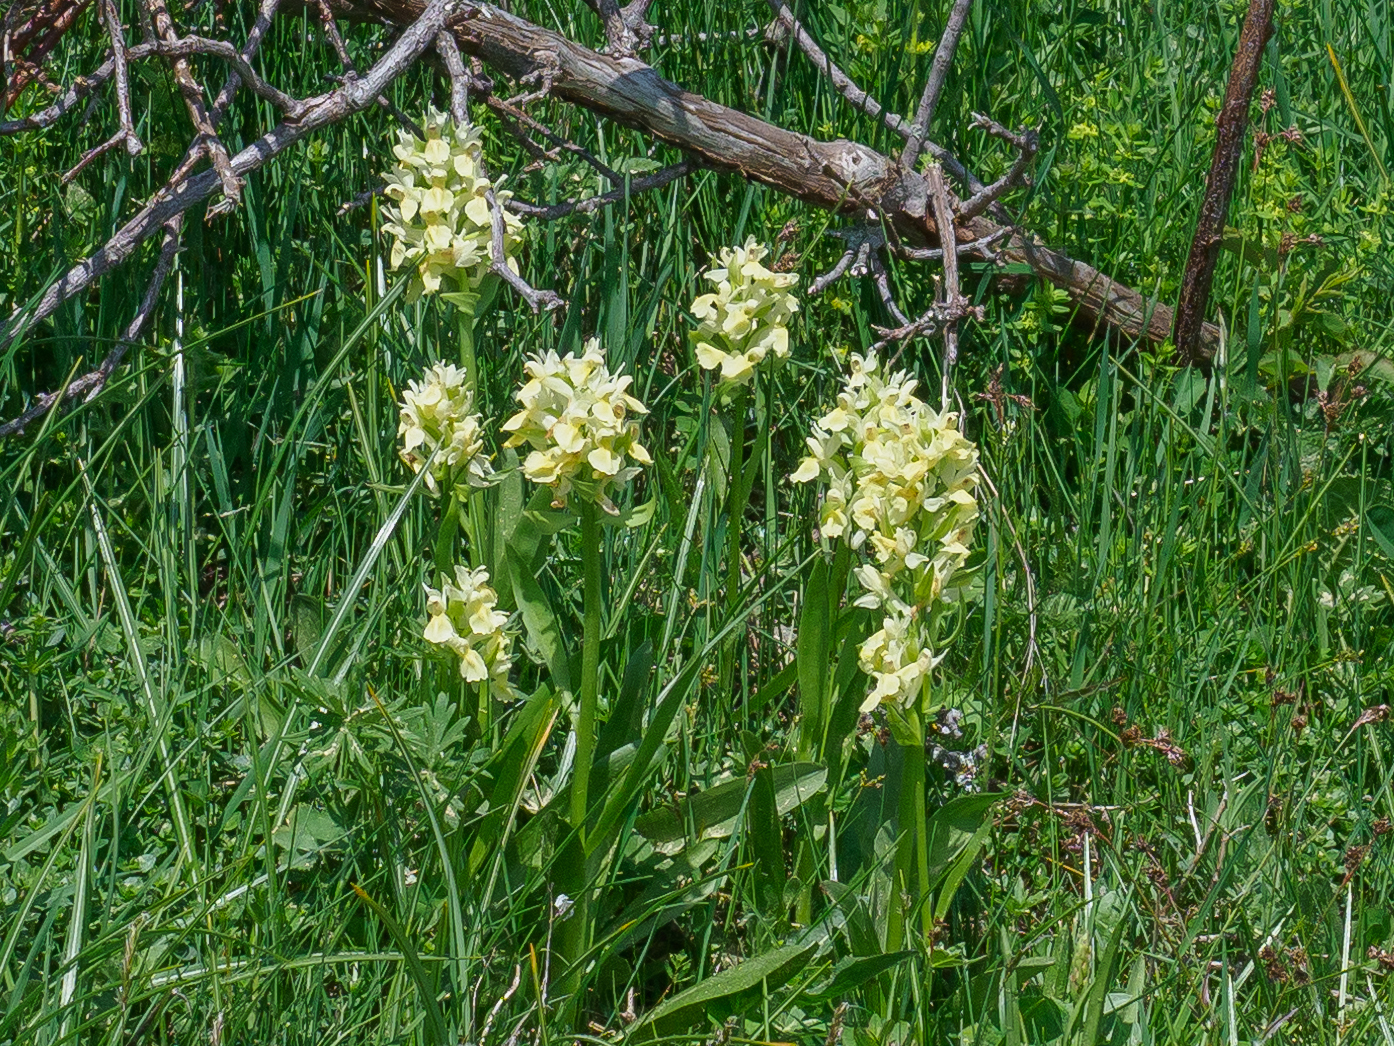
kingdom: Plantae
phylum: Tracheophyta
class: Liliopsida
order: Asparagales
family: Orchidaceae
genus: Dactylorhiza
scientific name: Dactylorhiza sambucina
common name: Elder-flowered orchid
